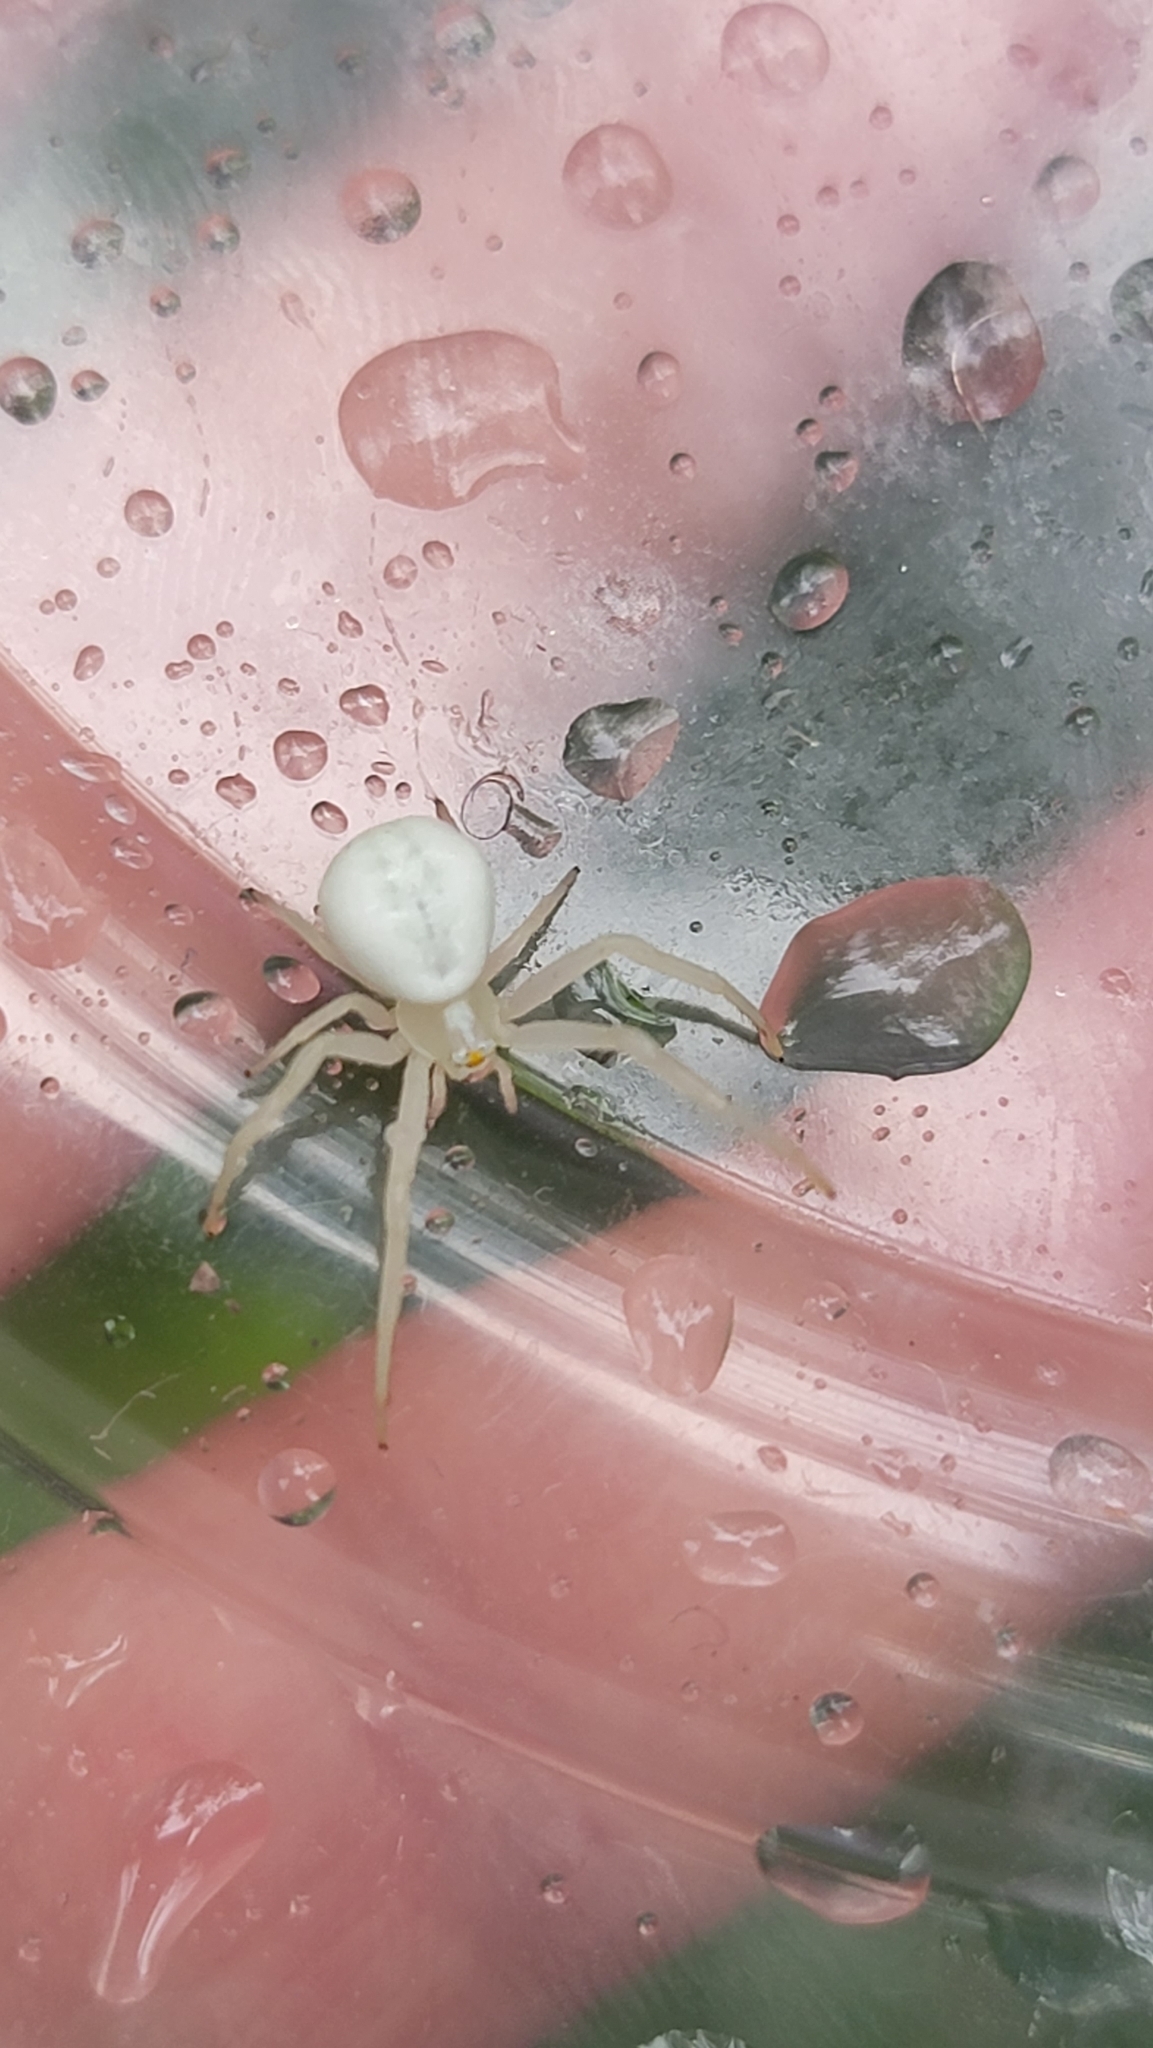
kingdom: Animalia
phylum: Arthropoda
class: Arachnida
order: Araneae
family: Thomisidae
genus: Misumena
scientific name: Misumena vatia
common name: Goldenrod crab spider
